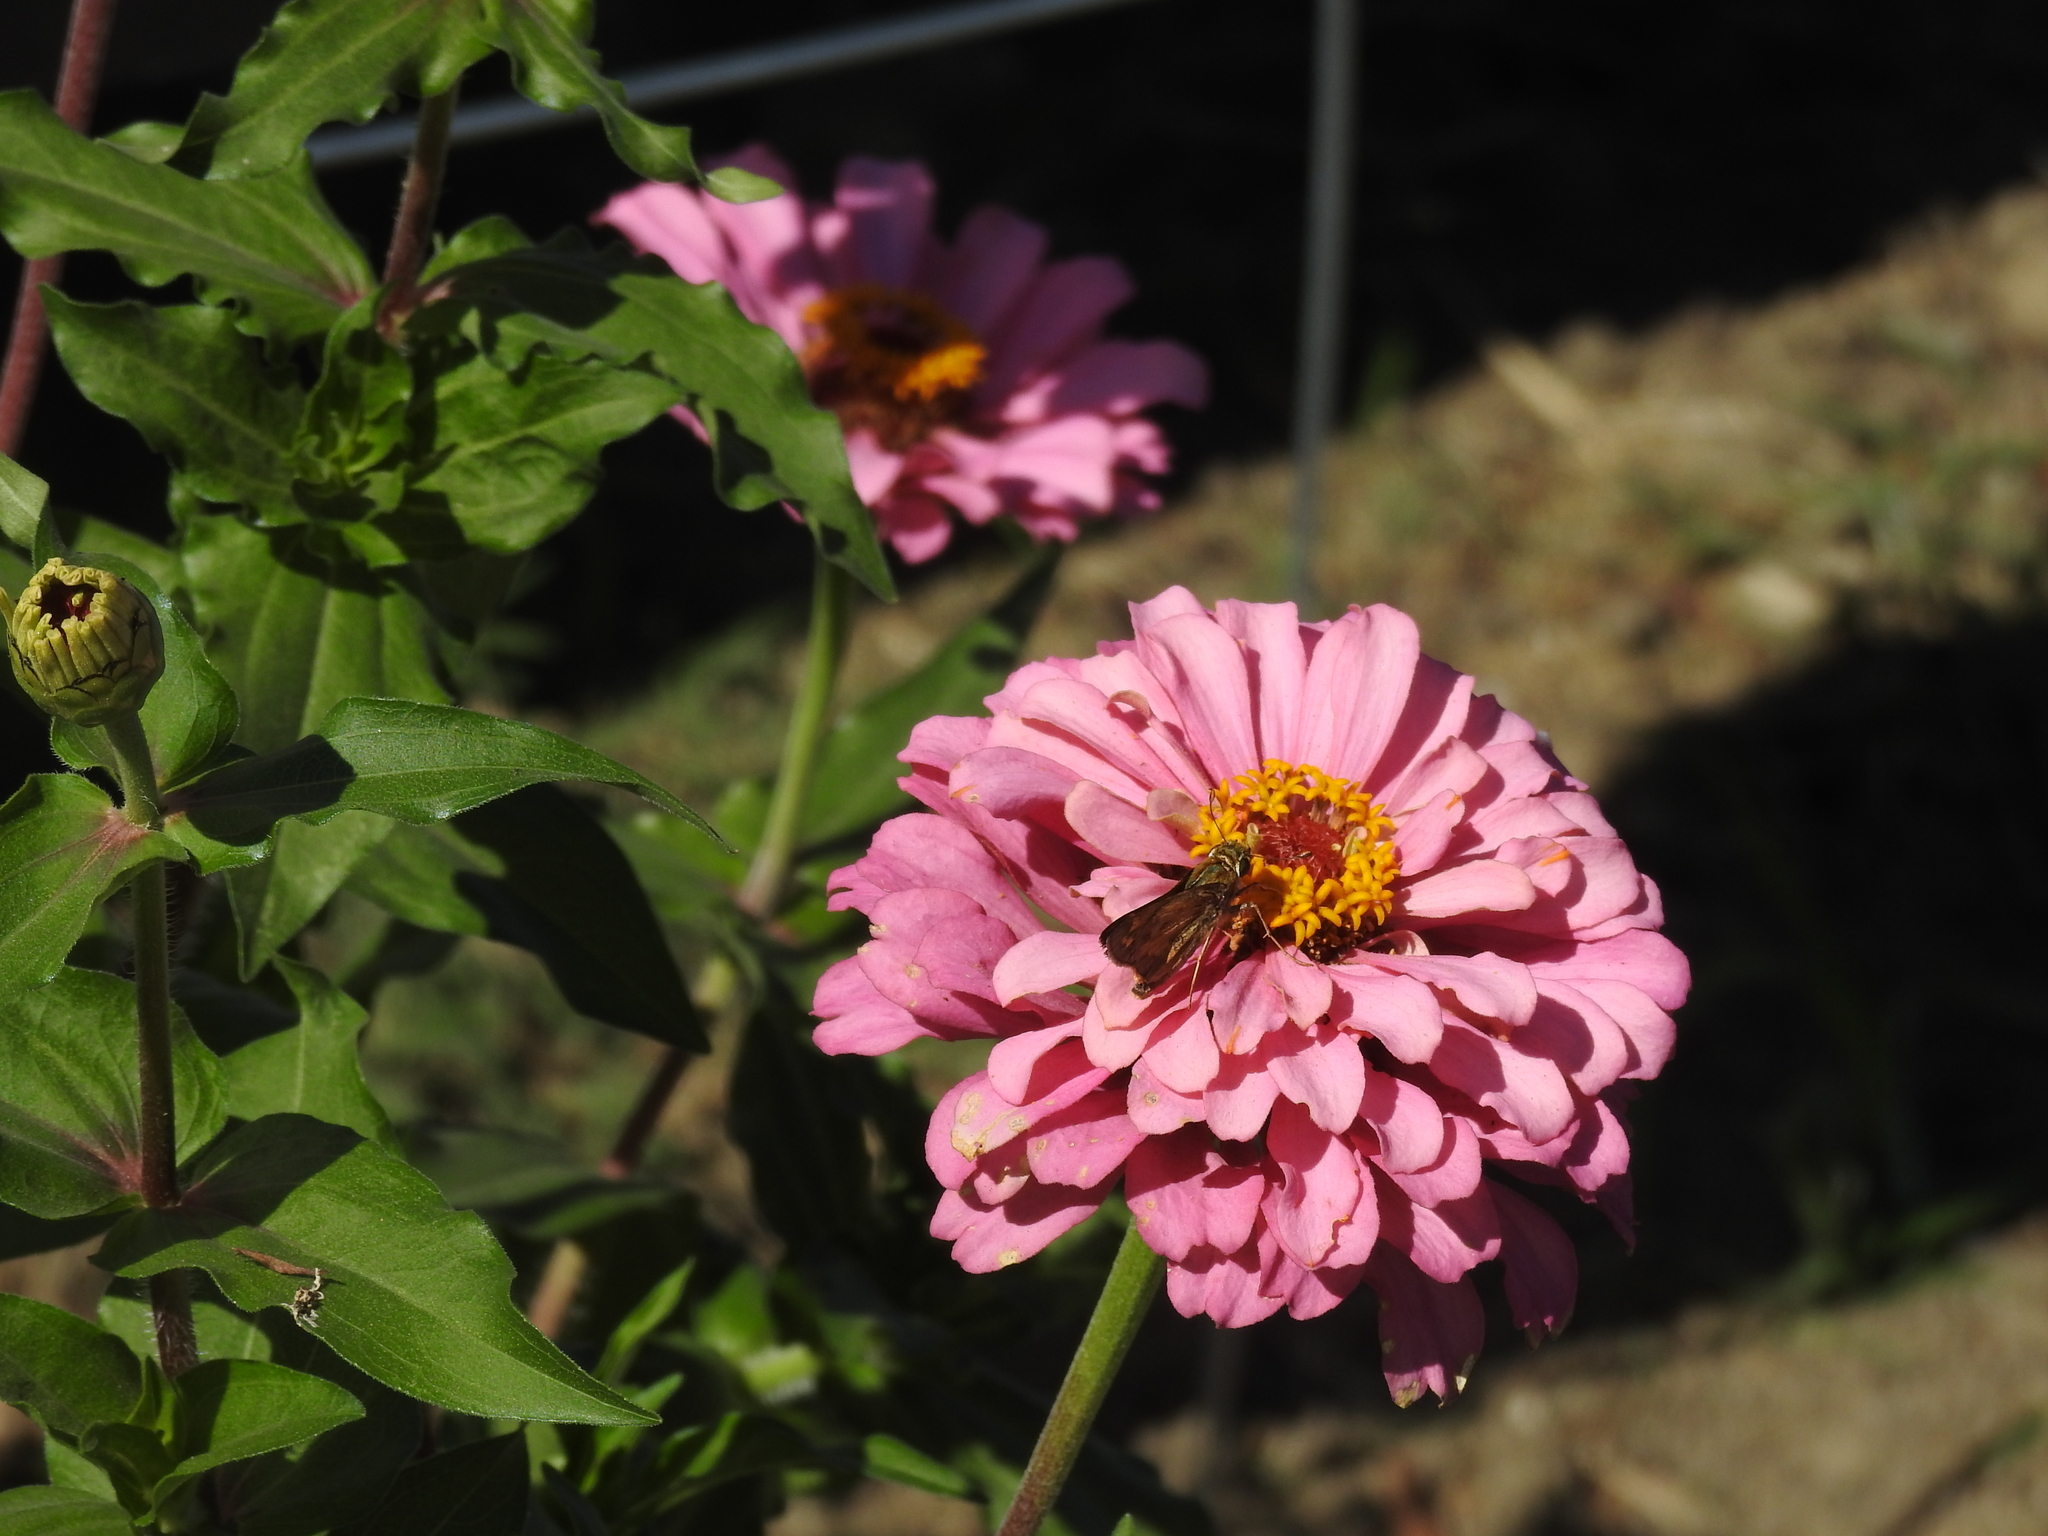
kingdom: Animalia
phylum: Arthropoda
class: Insecta
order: Lepidoptera
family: Hesperiidae
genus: Atalopedes
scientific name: Atalopedes
